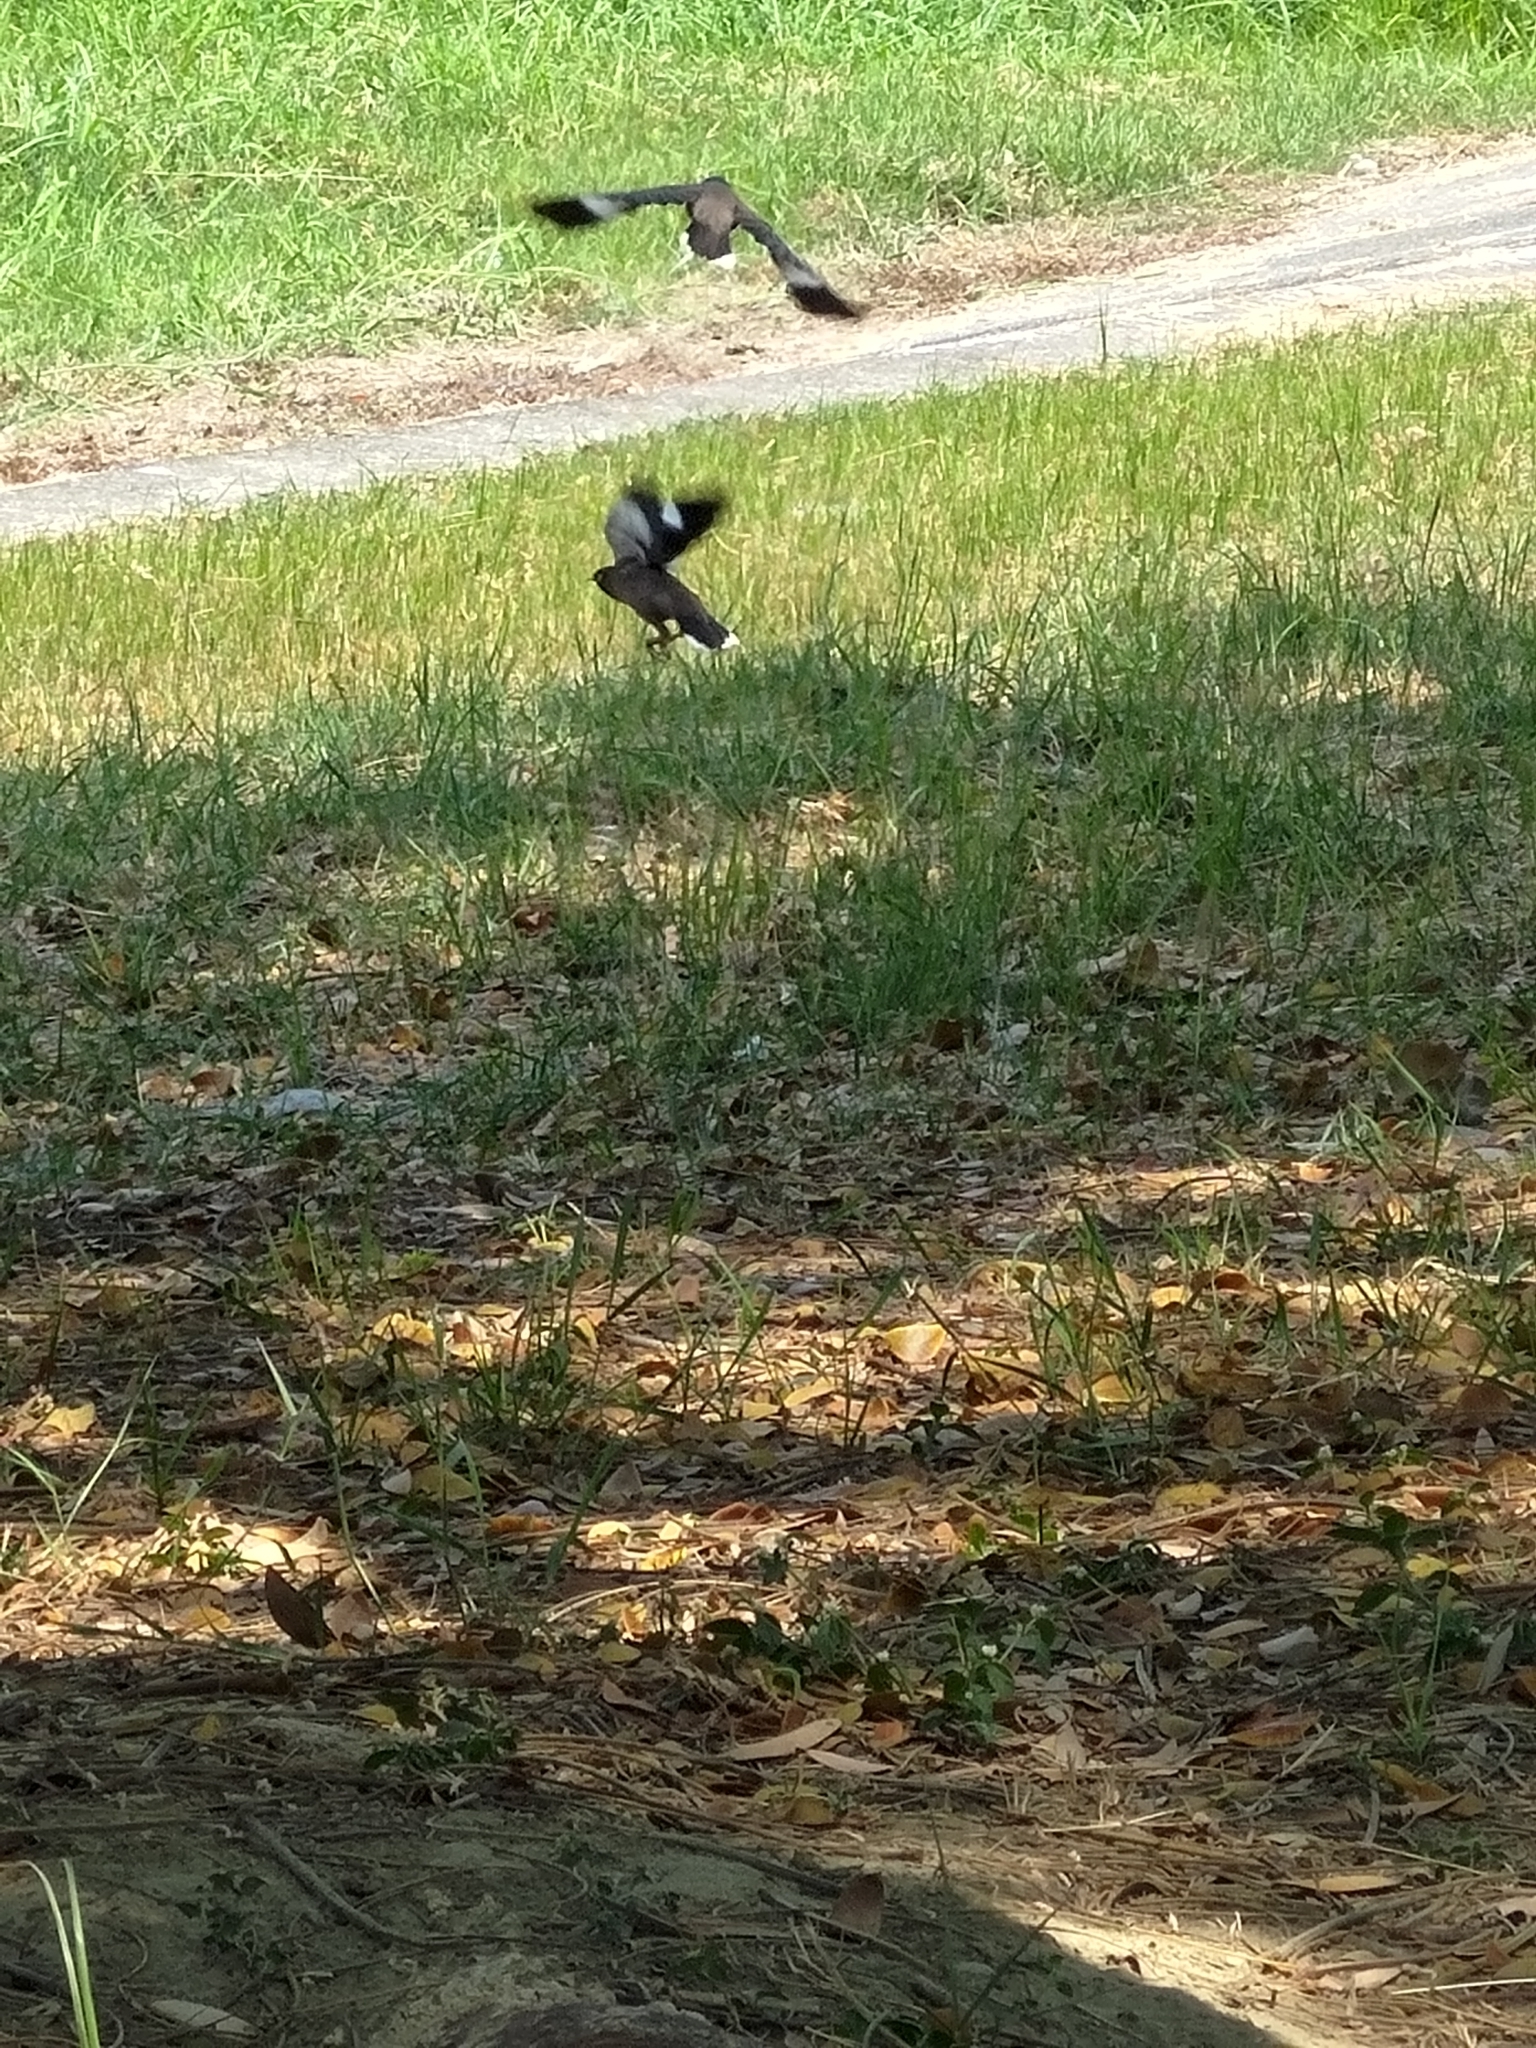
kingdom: Animalia
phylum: Chordata
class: Aves
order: Passeriformes
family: Sturnidae
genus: Acridotheres
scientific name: Acridotheres tristis
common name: Common myna
